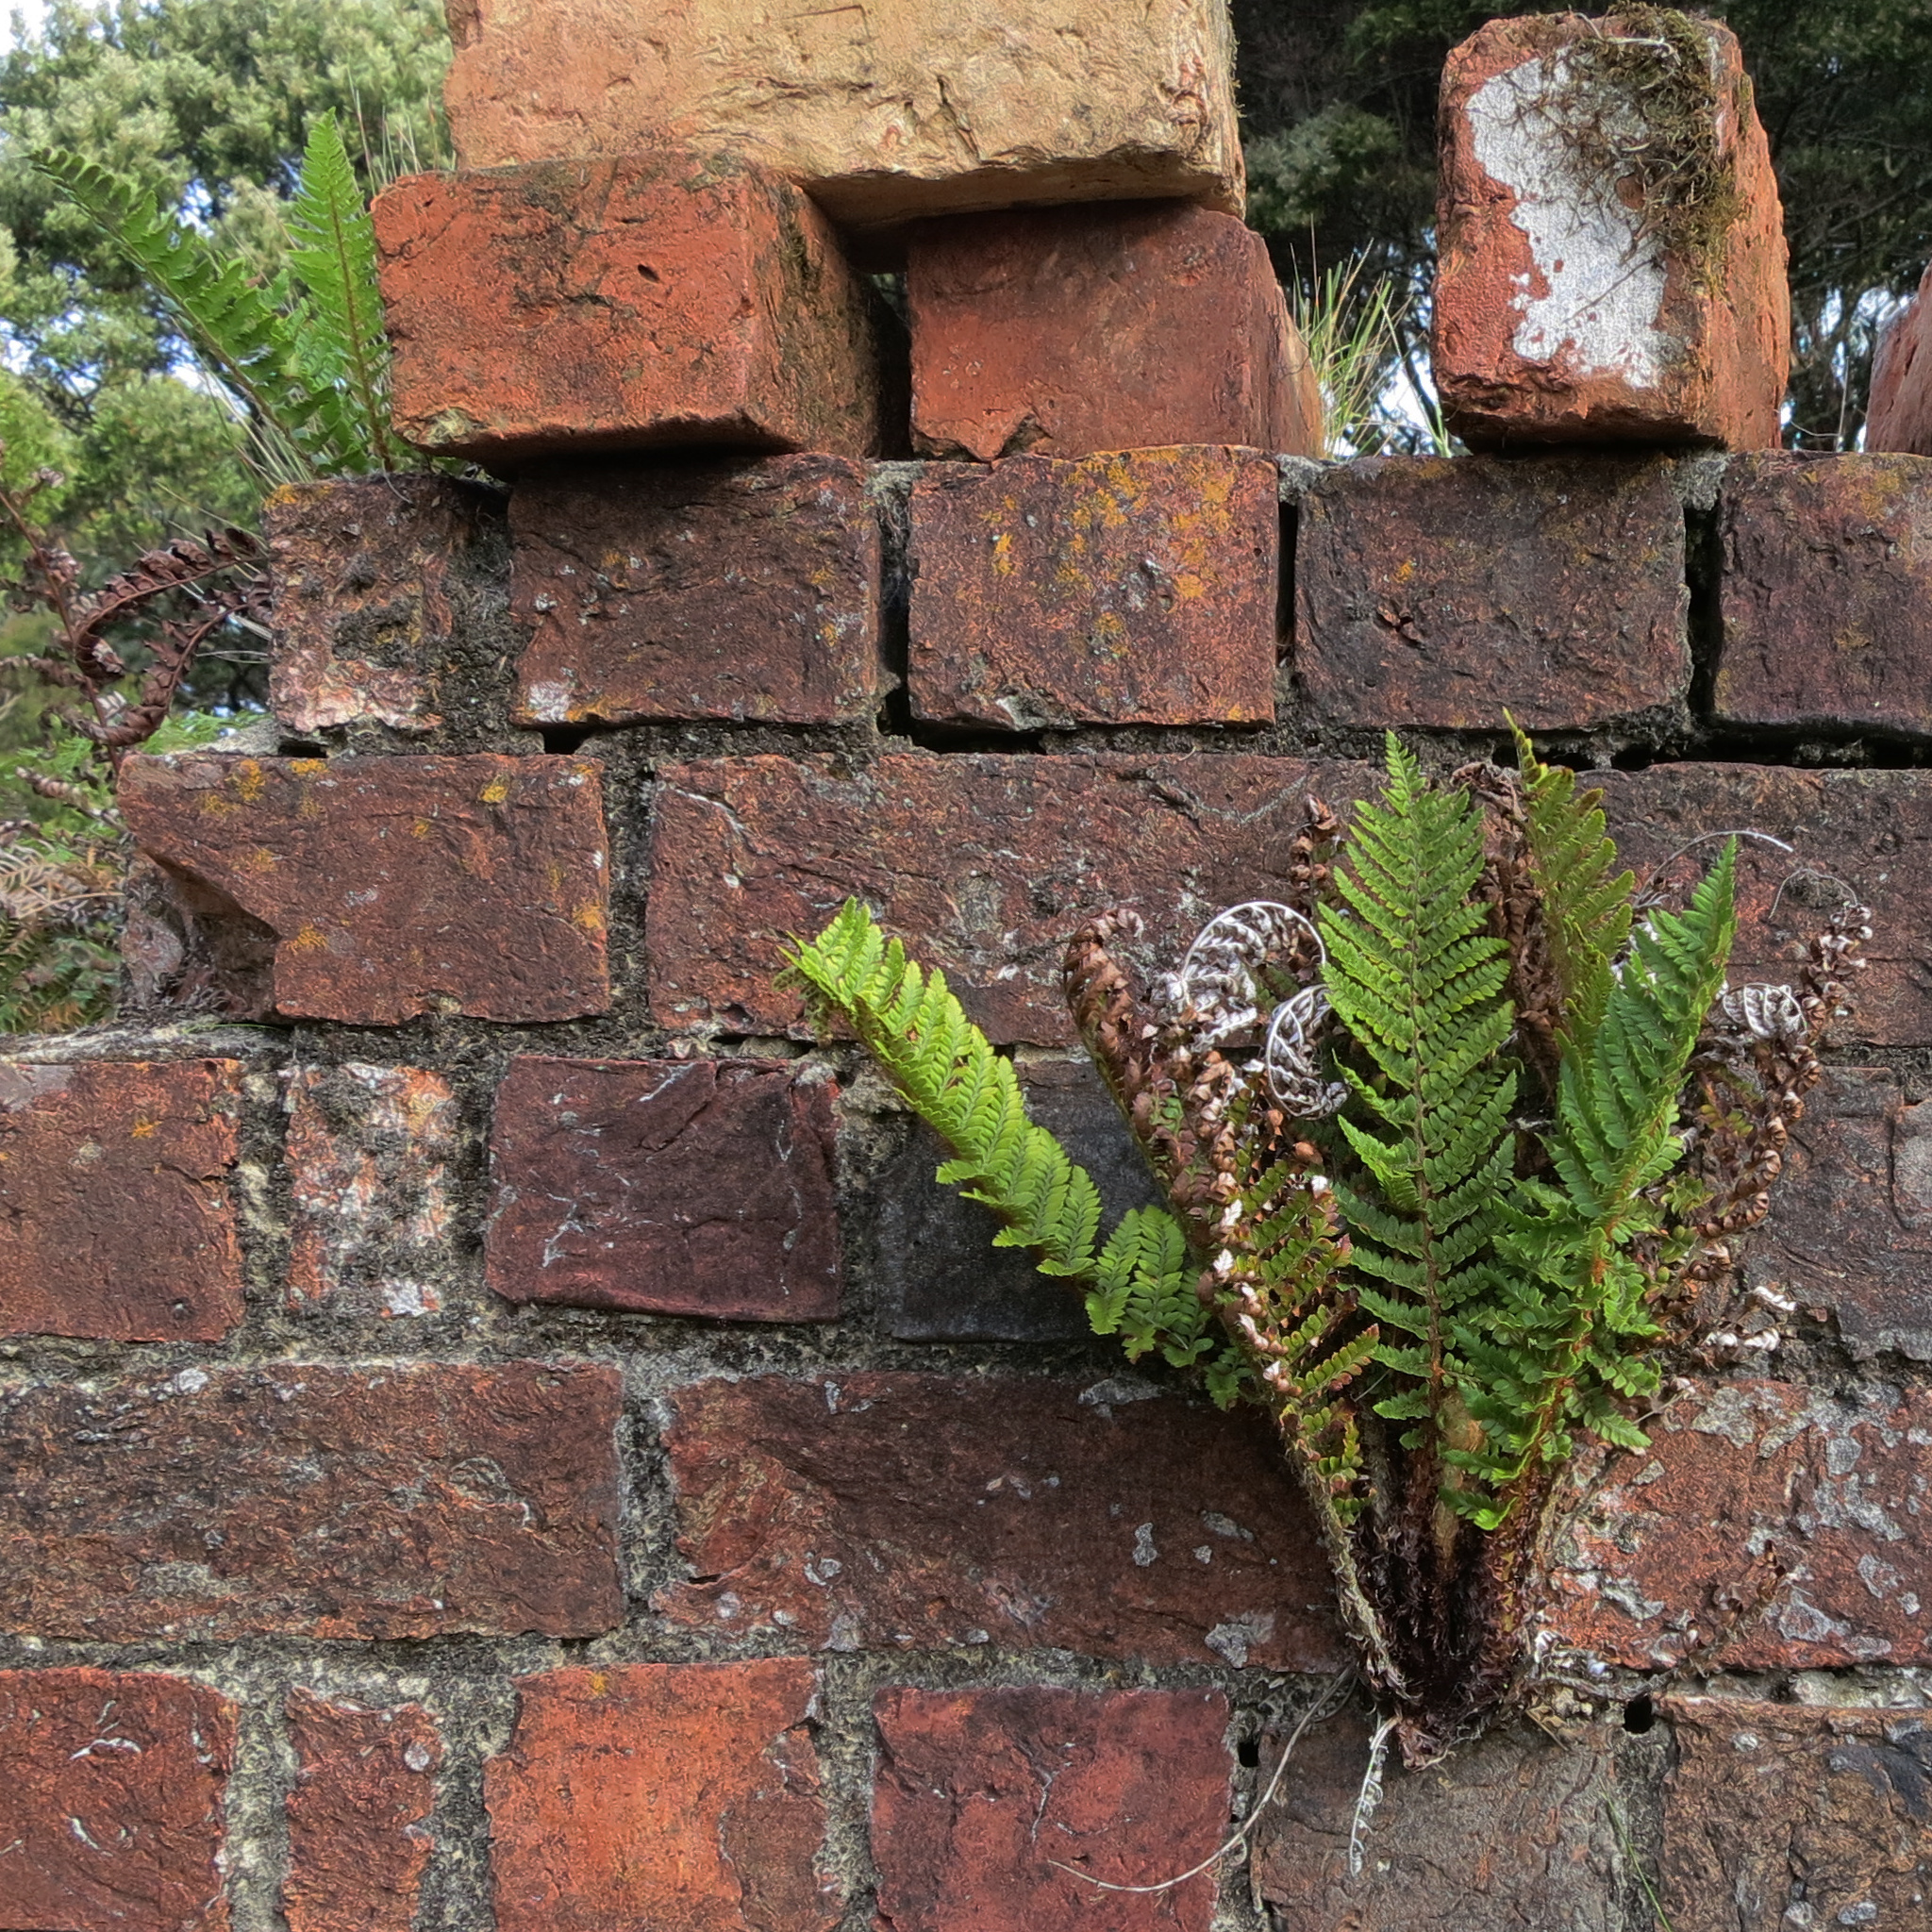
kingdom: Plantae
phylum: Tracheophyta
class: Polypodiopsida
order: Polypodiales
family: Dryopteridaceae
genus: Polystichum
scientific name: Polystichum proliferum
